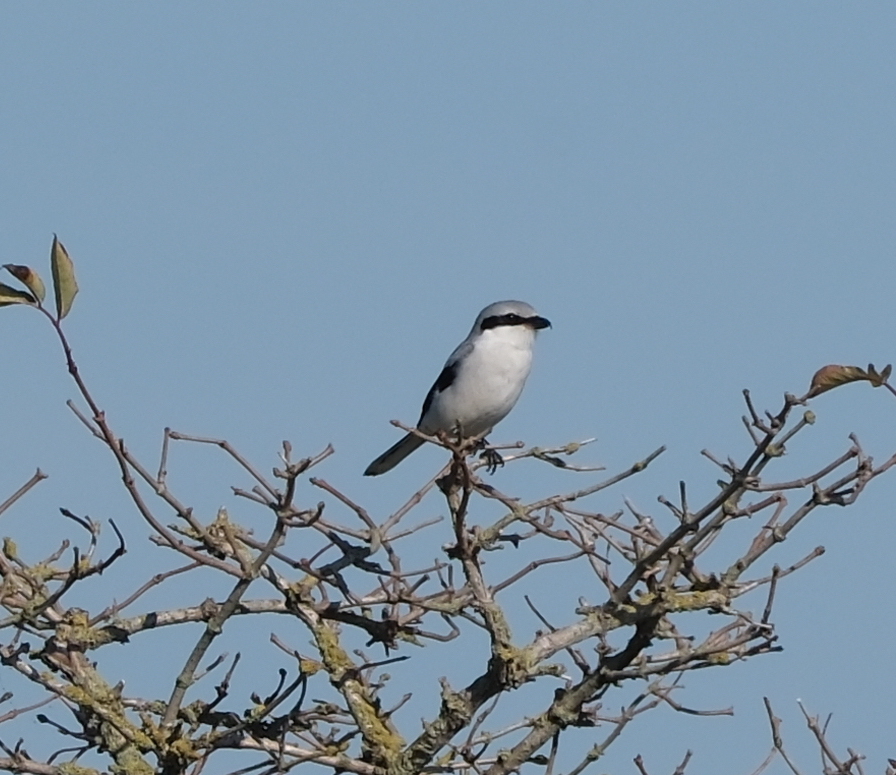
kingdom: Animalia
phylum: Chordata
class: Aves
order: Passeriformes
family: Laniidae
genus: Lanius
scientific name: Lanius excubitor
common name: Great grey shrike
